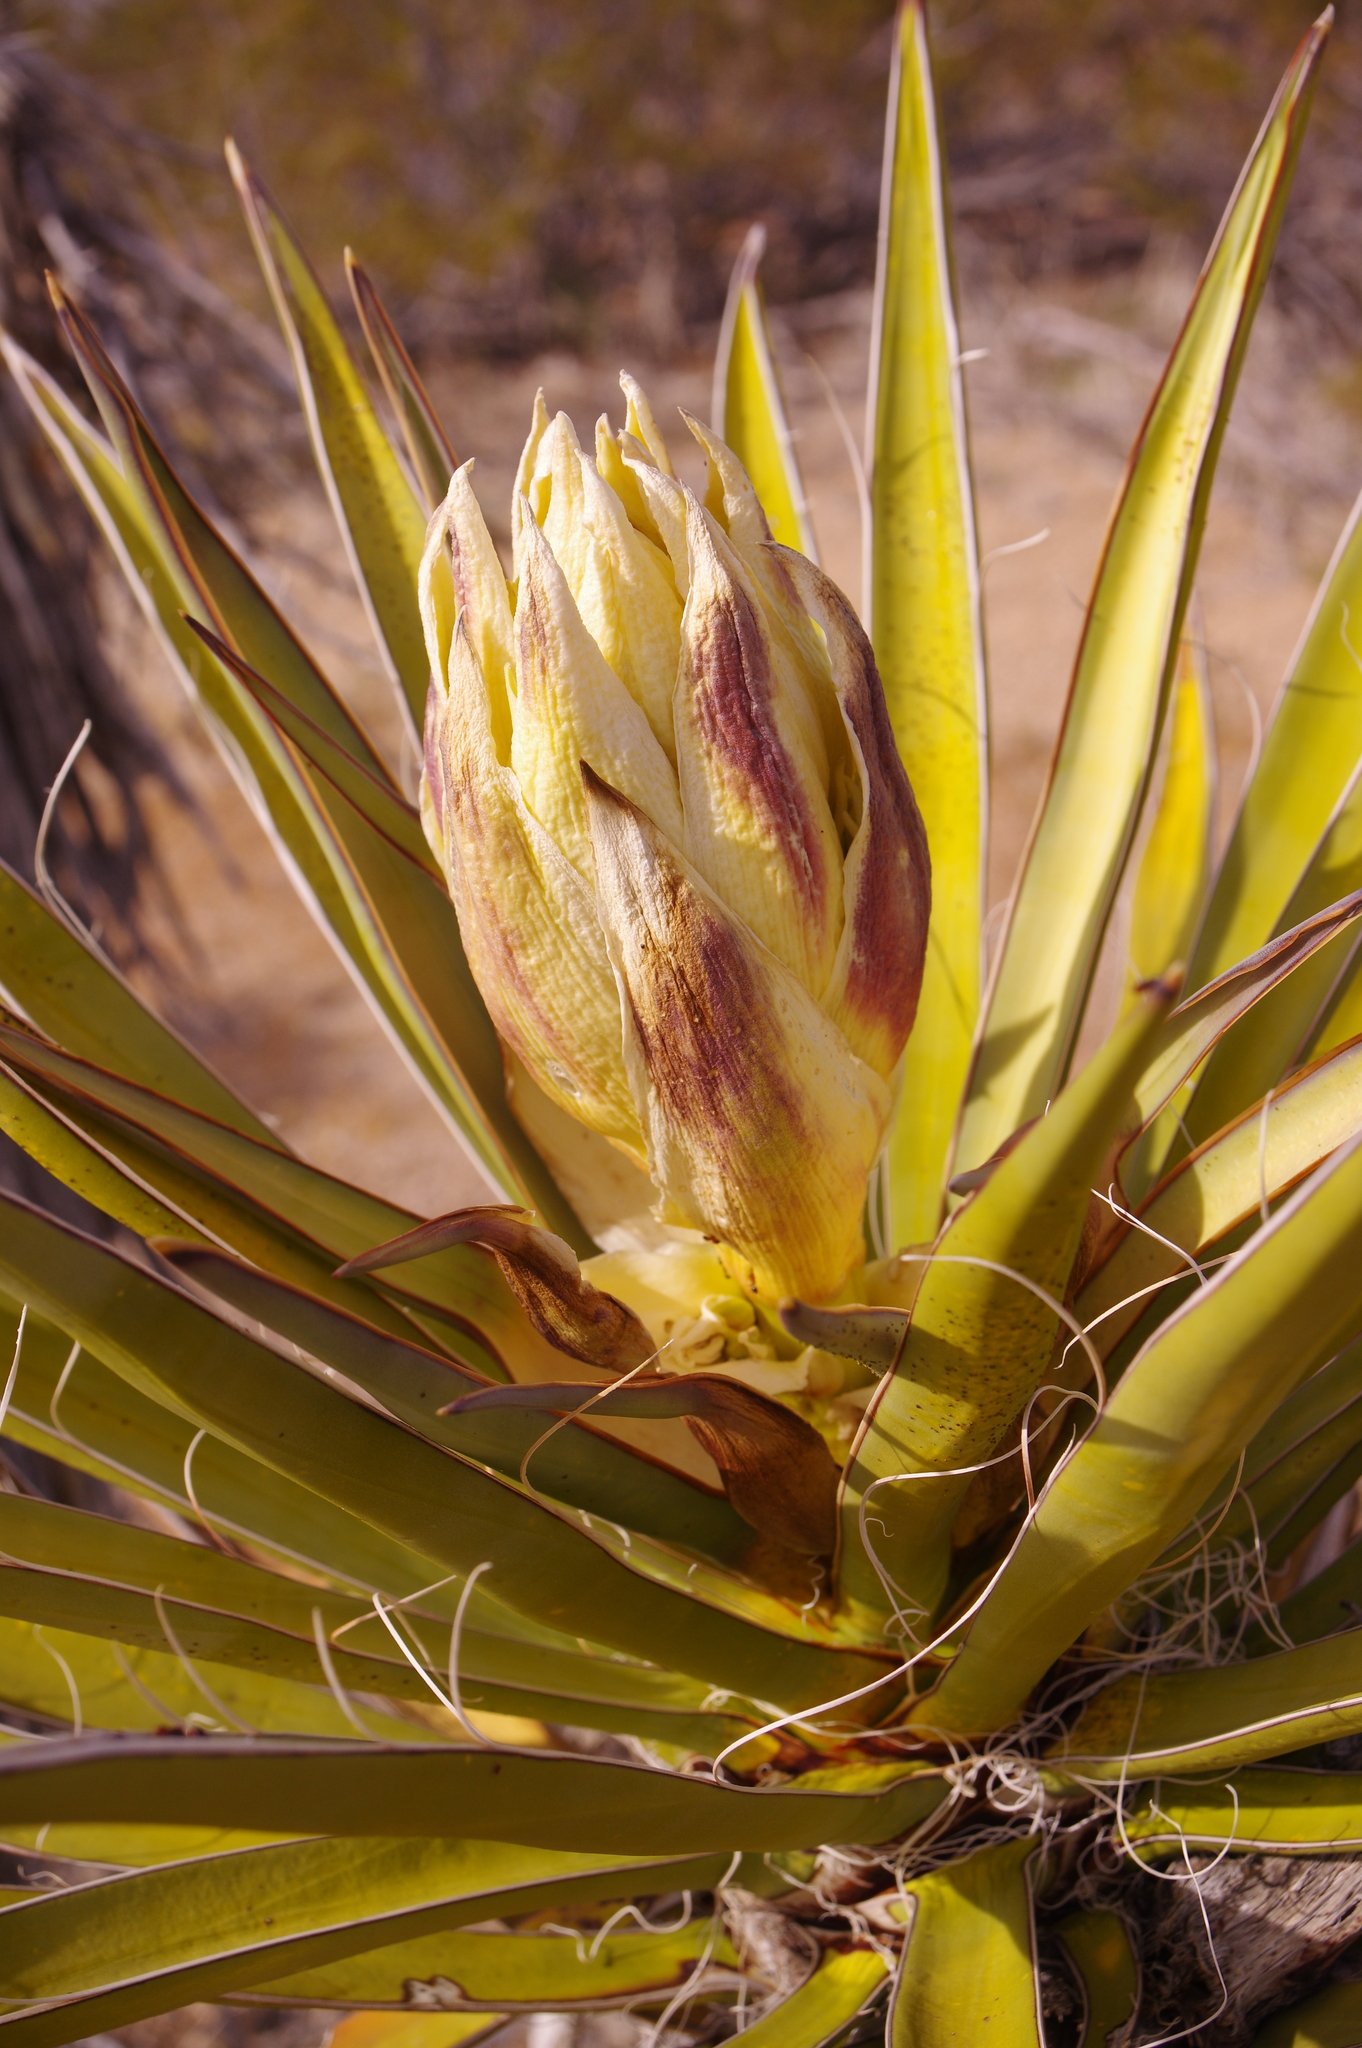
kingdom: Plantae
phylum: Tracheophyta
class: Liliopsida
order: Asparagales
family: Asparagaceae
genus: Yucca
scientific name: Yucca schidigera
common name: Mojave yucca
